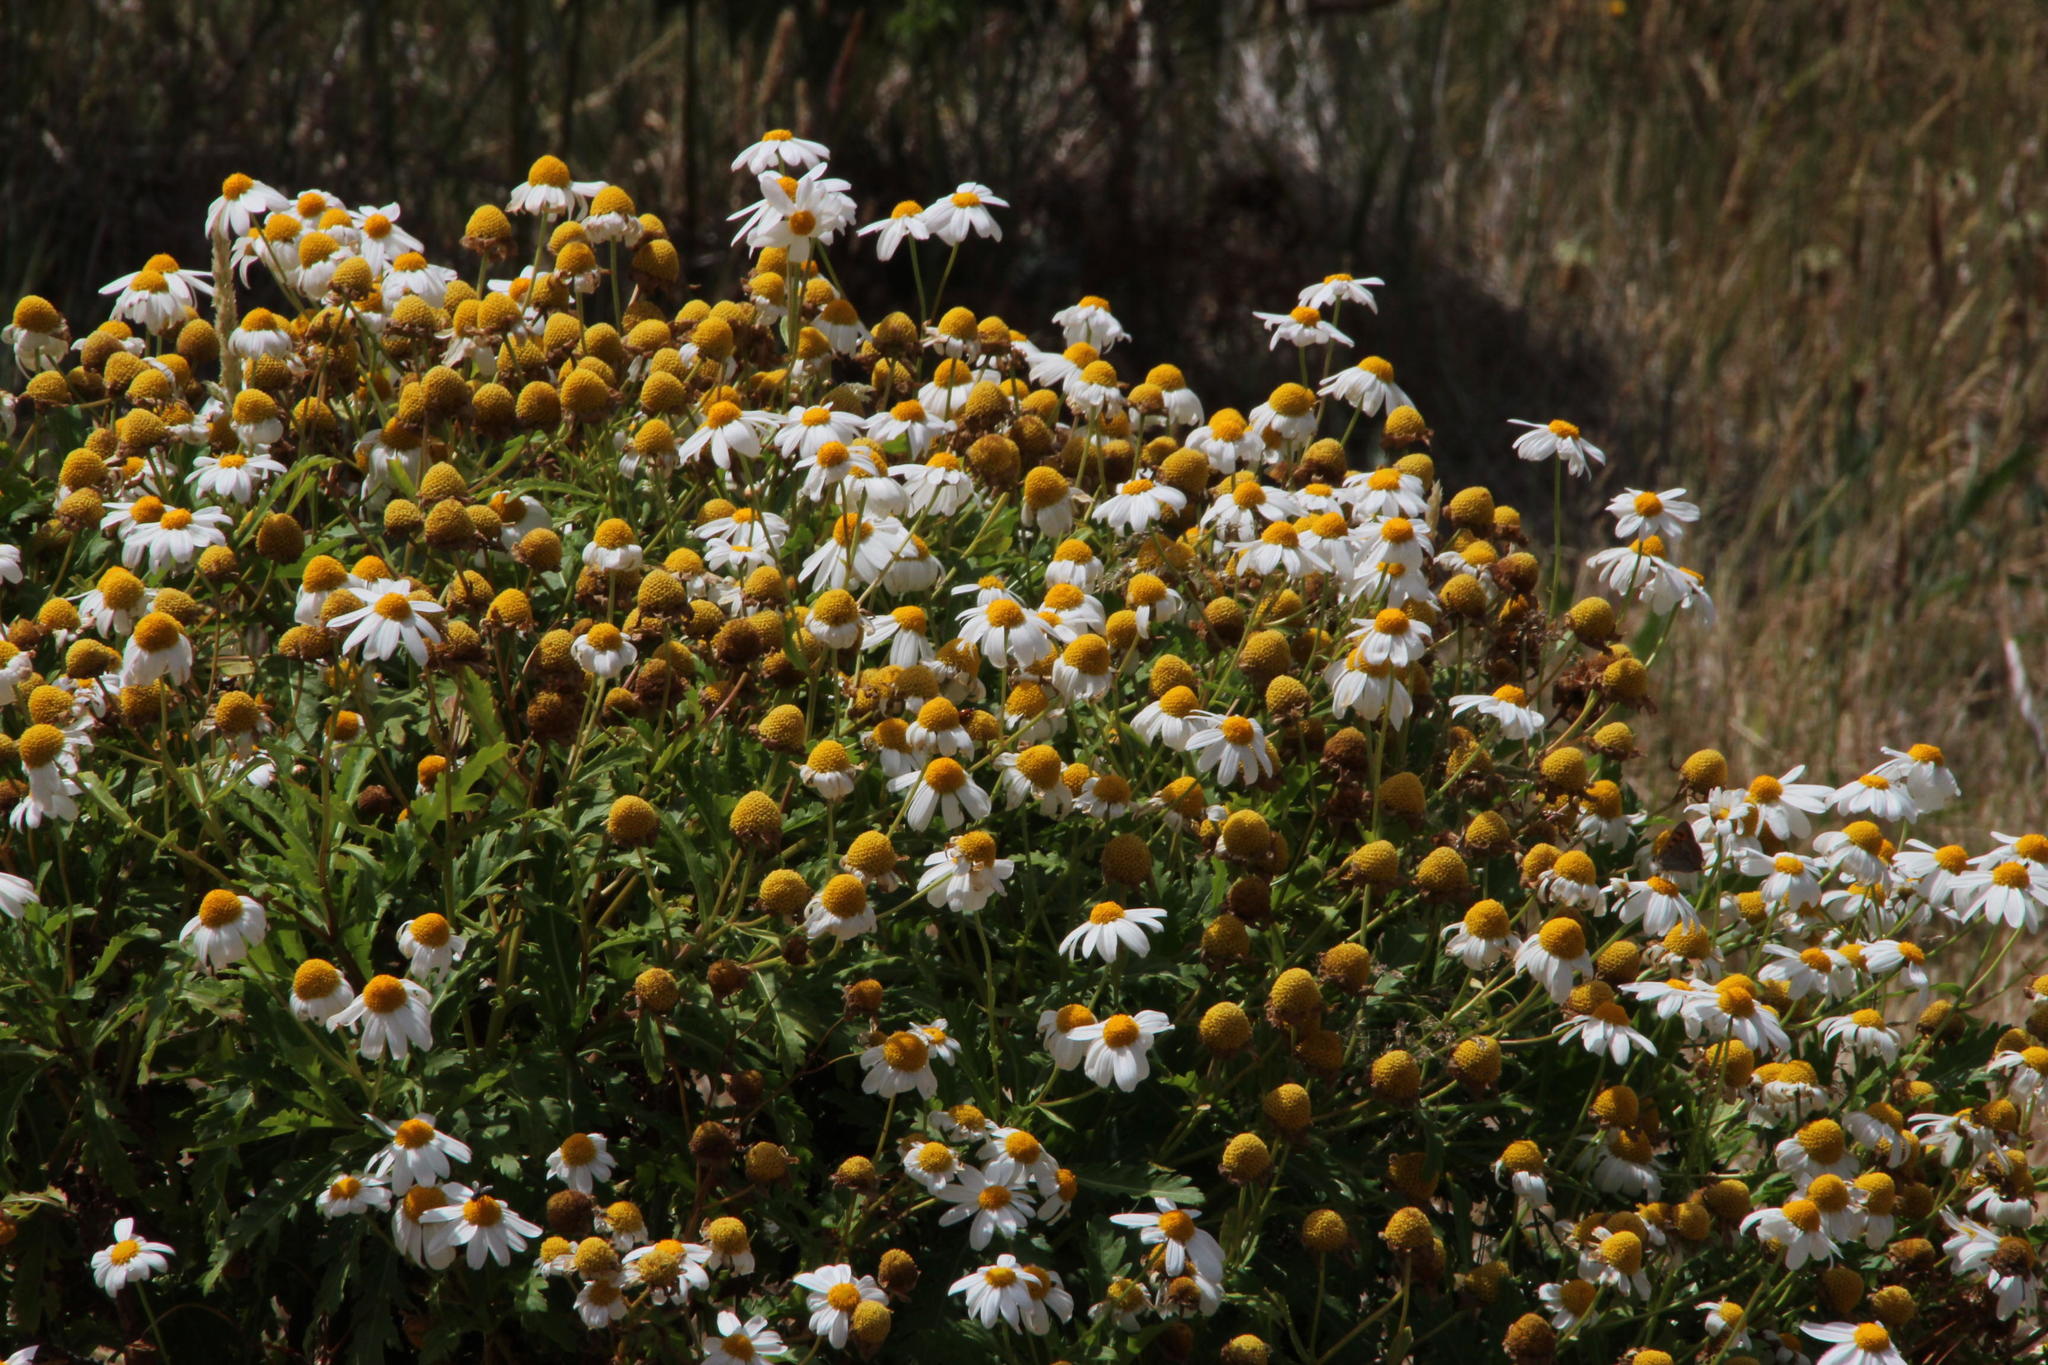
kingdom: Plantae
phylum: Tracheophyta
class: Magnoliopsida
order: Asterales
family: Asteraceae
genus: Argyranthemum
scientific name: Argyranthemum pinnatifidum
